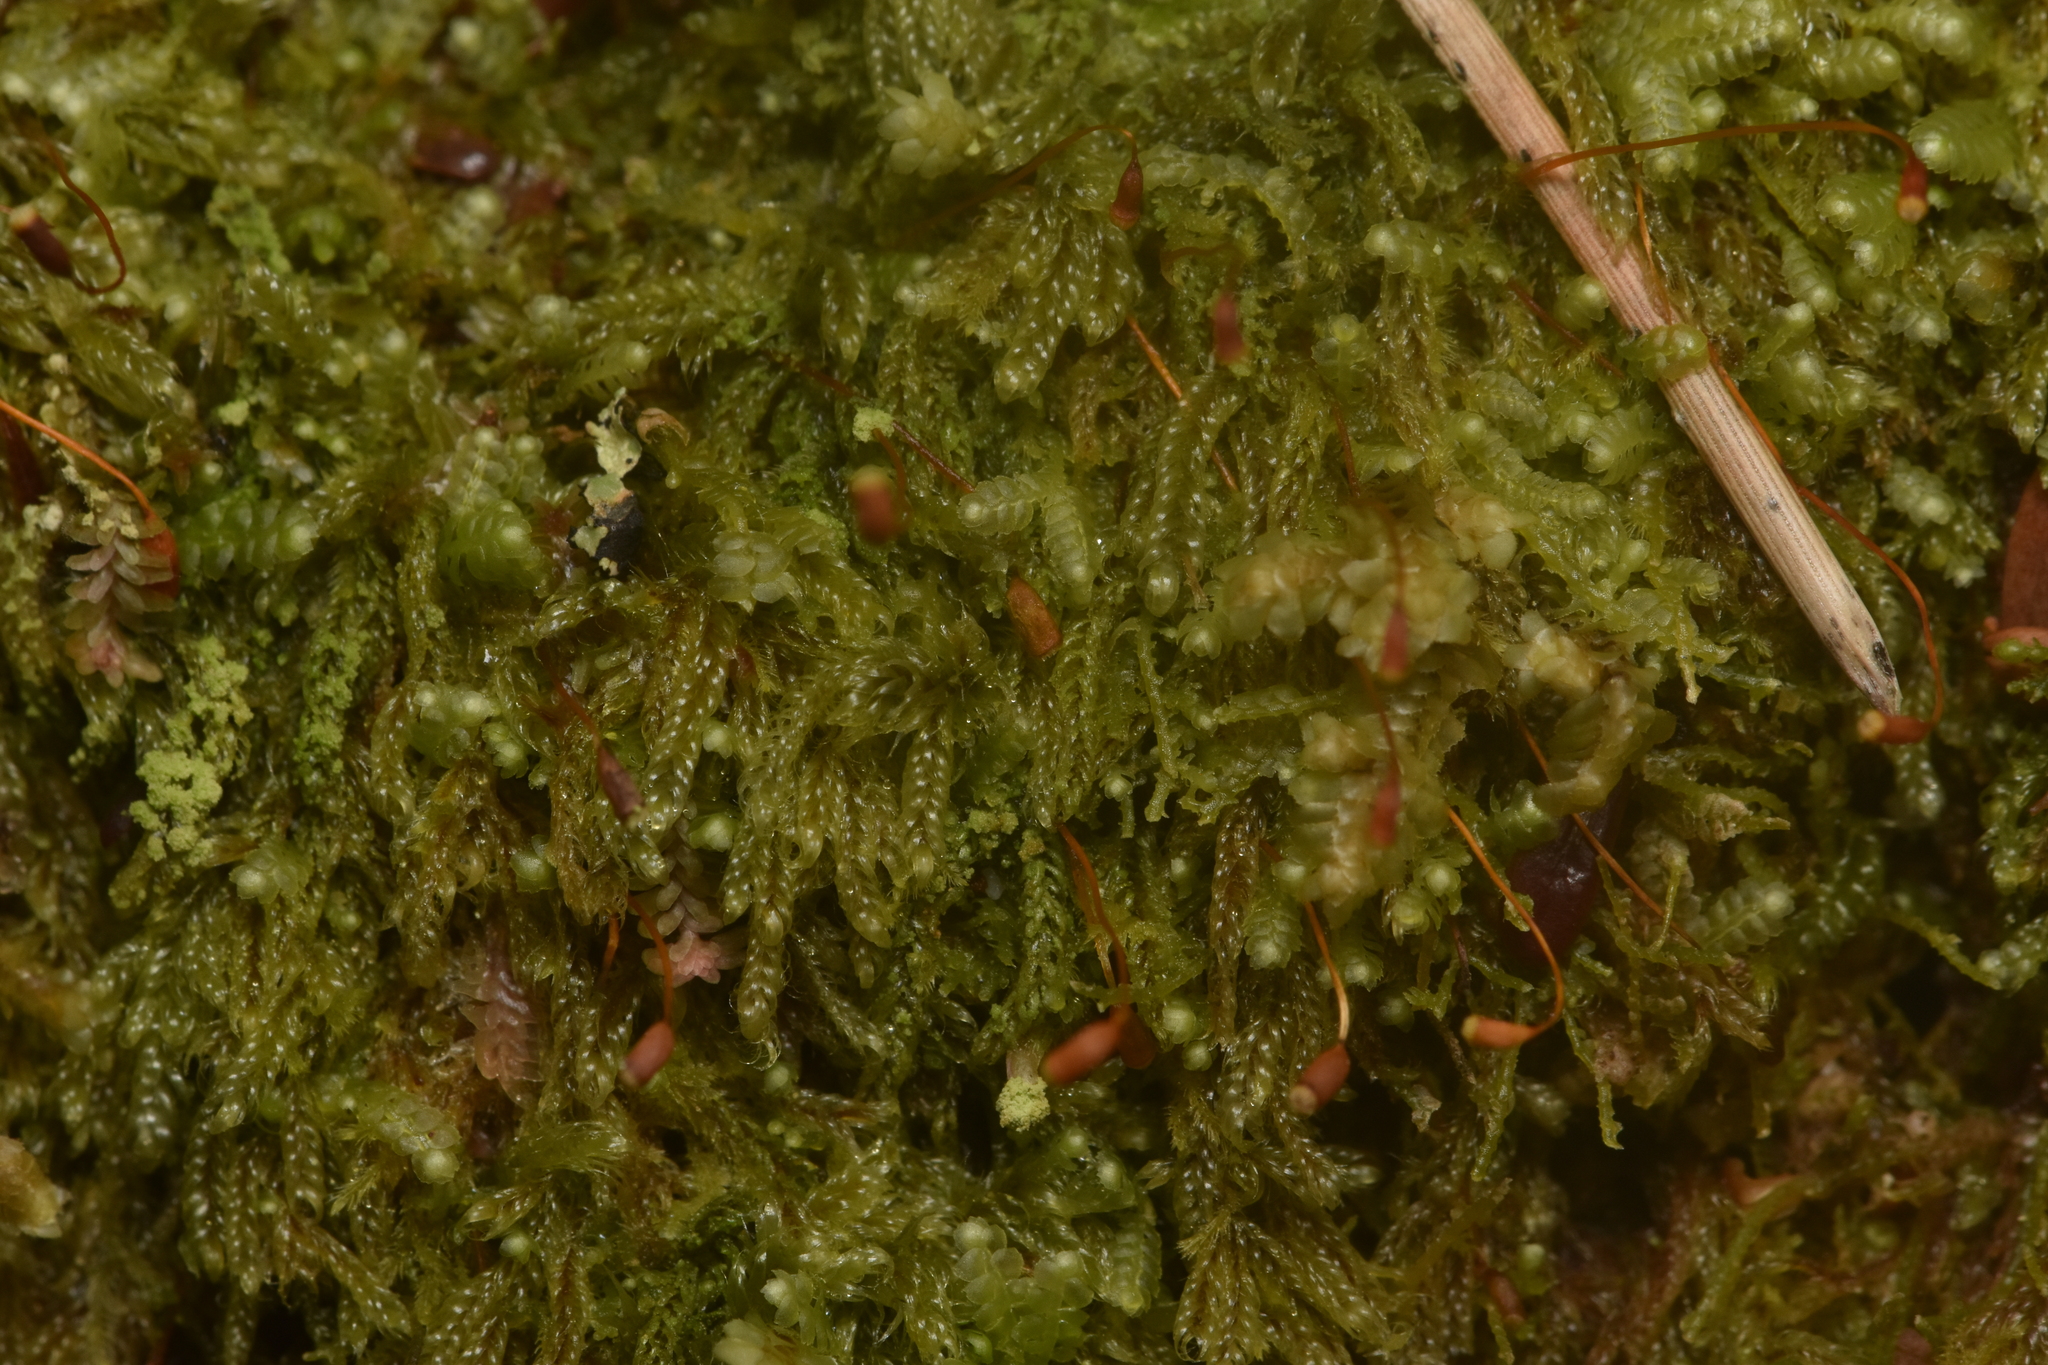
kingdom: Plantae
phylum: Bryophyta
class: Bryopsida
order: Hypnales
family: Pylaisiadelphaceae
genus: Trochophyllohypnum
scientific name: Trochophyllohypnum circinale
